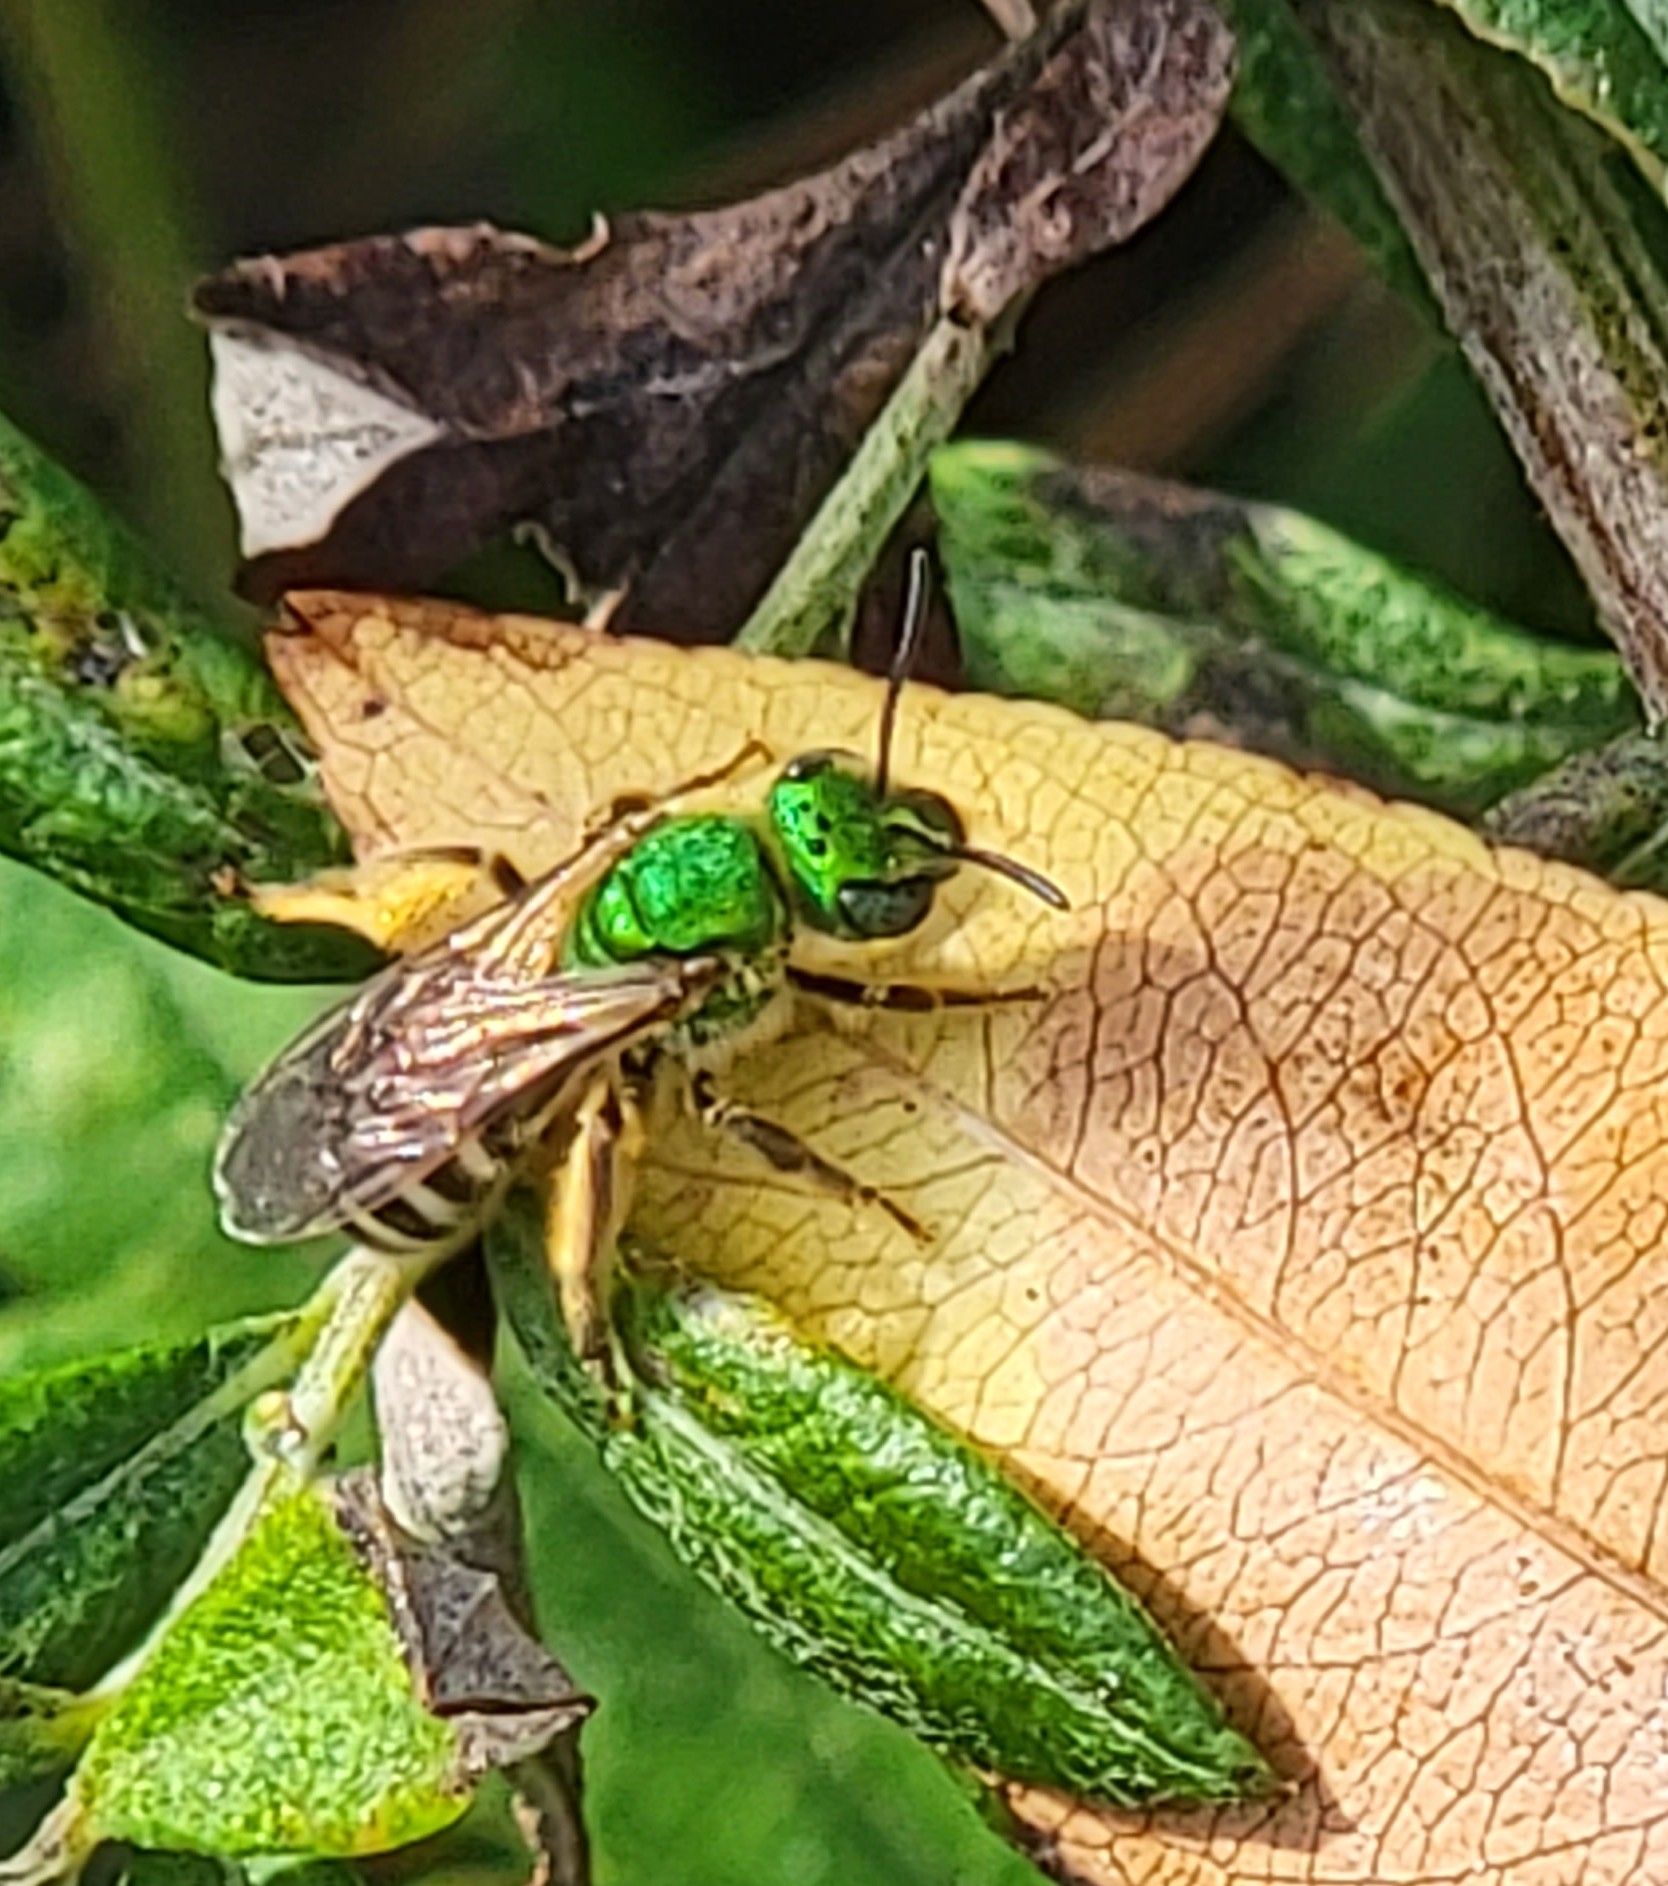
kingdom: Animalia
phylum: Arthropoda
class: Insecta
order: Hymenoptera
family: Halictidae
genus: Agapostemon
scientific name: Agapostemon virescens
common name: Bicolored striped sweat bee
